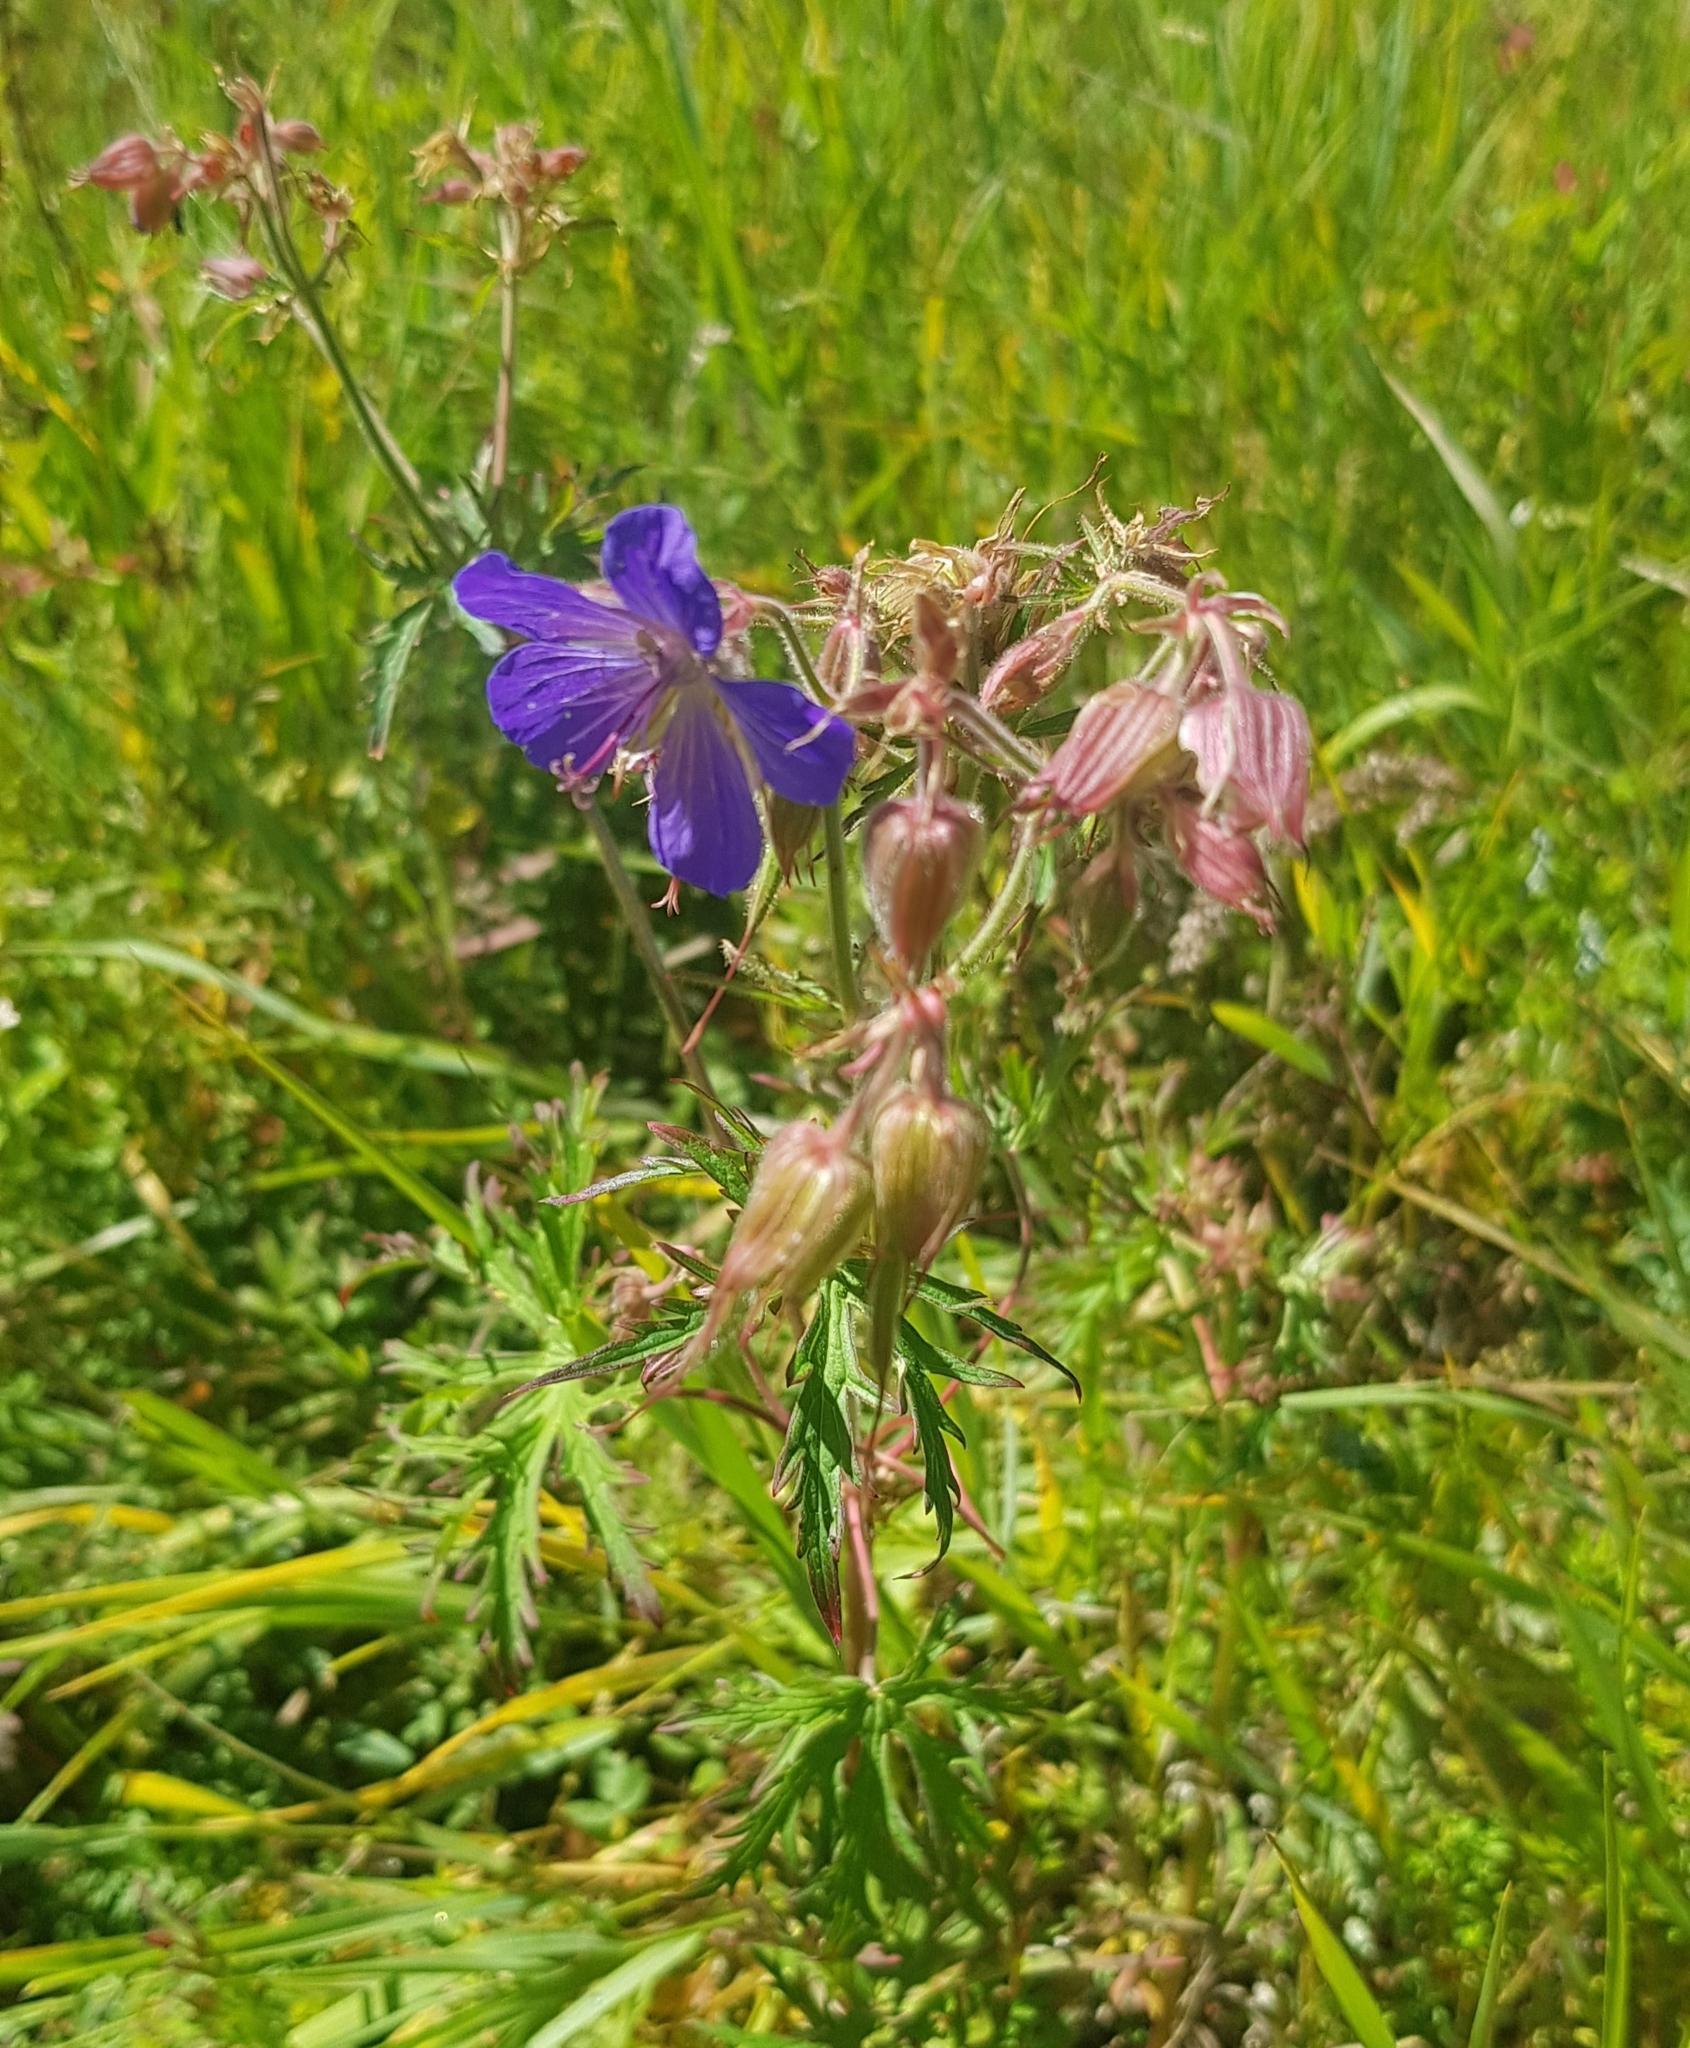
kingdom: Plantae
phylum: Tracheophyta
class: Magnoliopsida
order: Geraniales
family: Geraniaceae
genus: Geranium
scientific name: Geranium pratense
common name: Meadow crane's-bill
